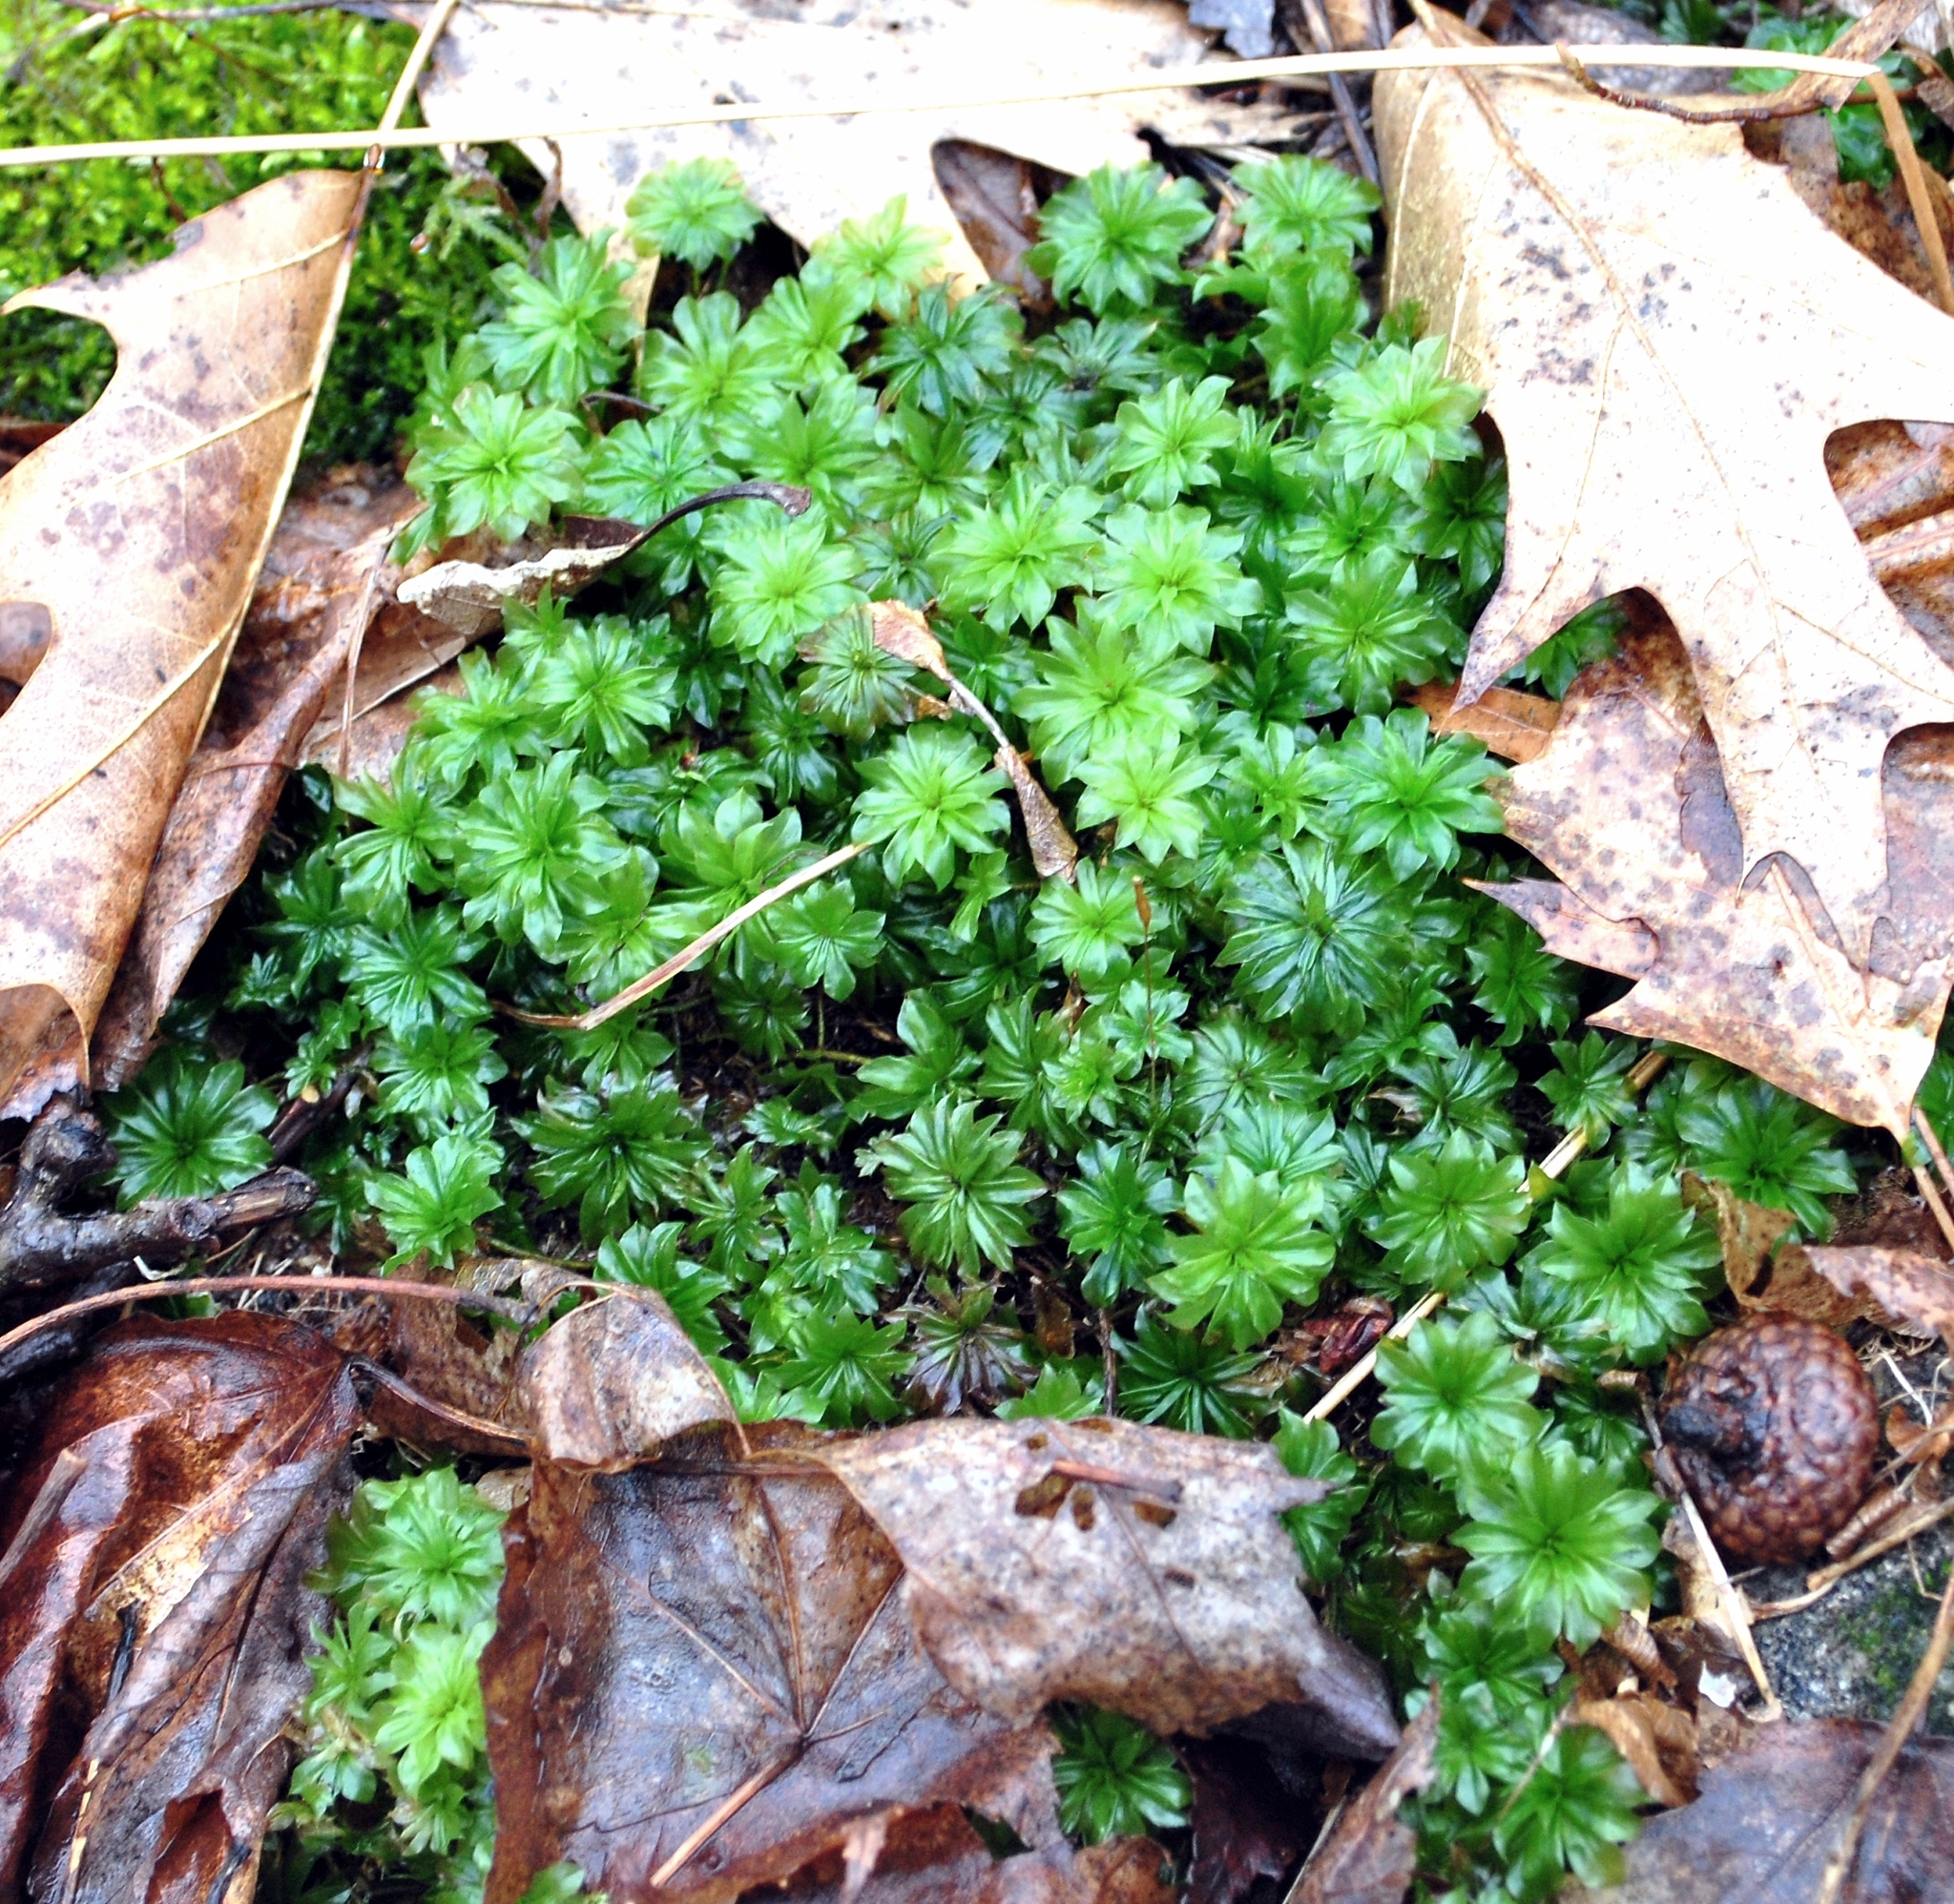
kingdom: Plantae
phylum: Bryophyta
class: Bryopsida
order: Bryales
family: Bryaceae
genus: Rhodobryum
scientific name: Rhodobryum ontariense
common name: Ontario rhodobryum moss
